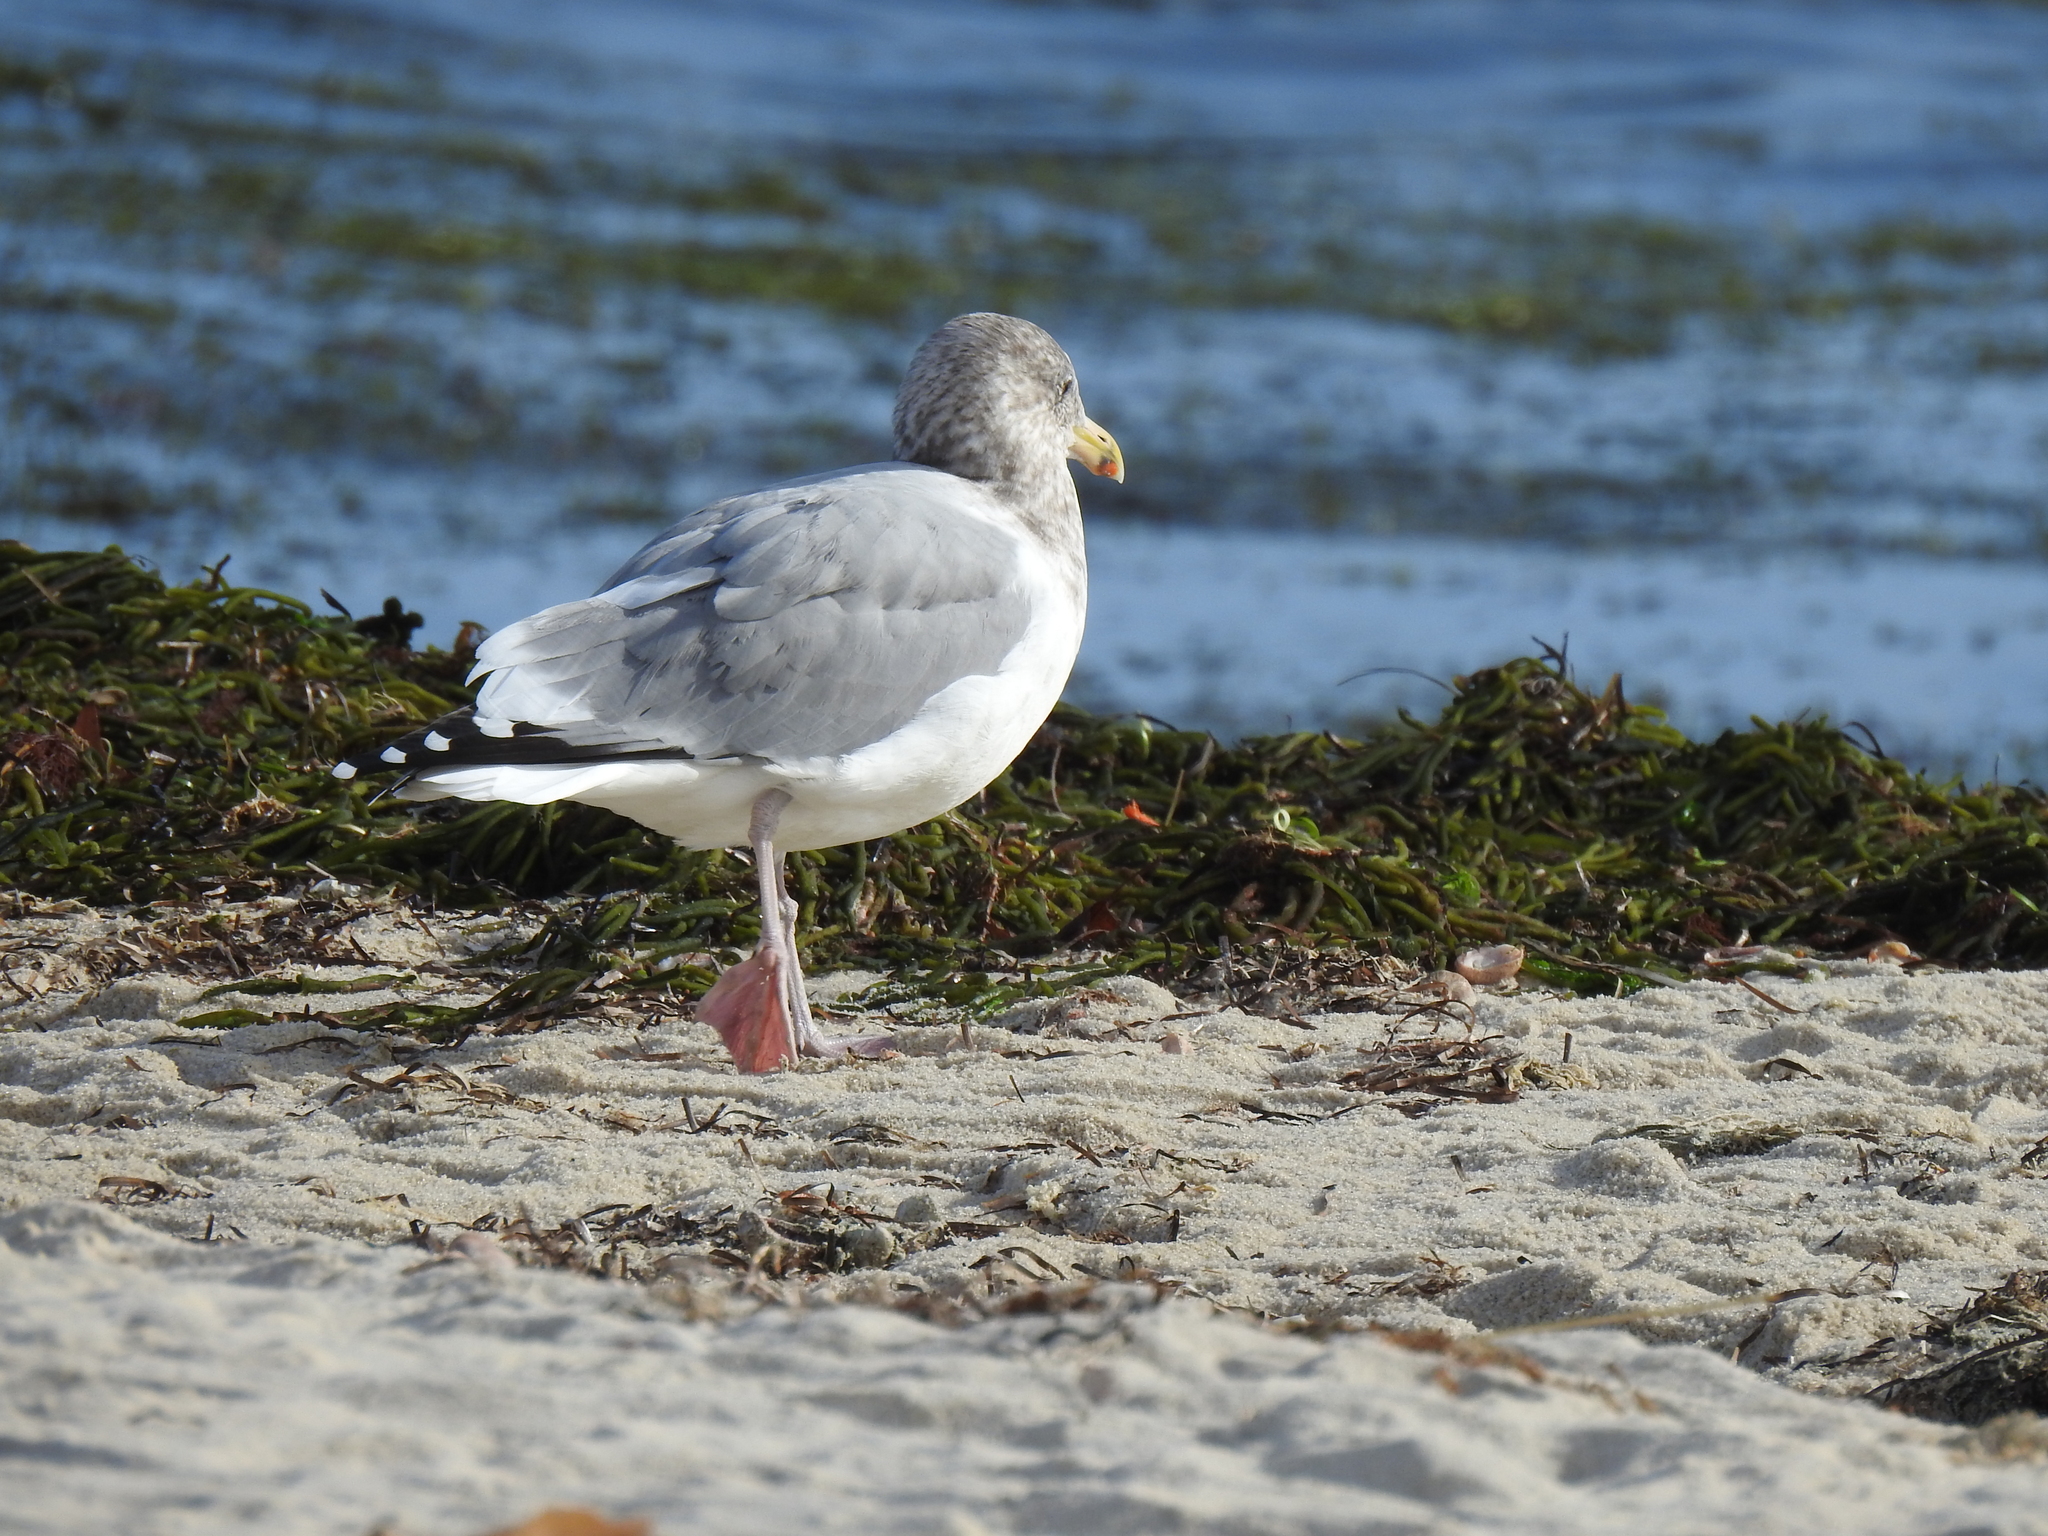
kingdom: Animalia
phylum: Chordata
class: Aves
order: Charadriiformes
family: Laridae
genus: Larus
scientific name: Larus argentatus
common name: Herring gull
